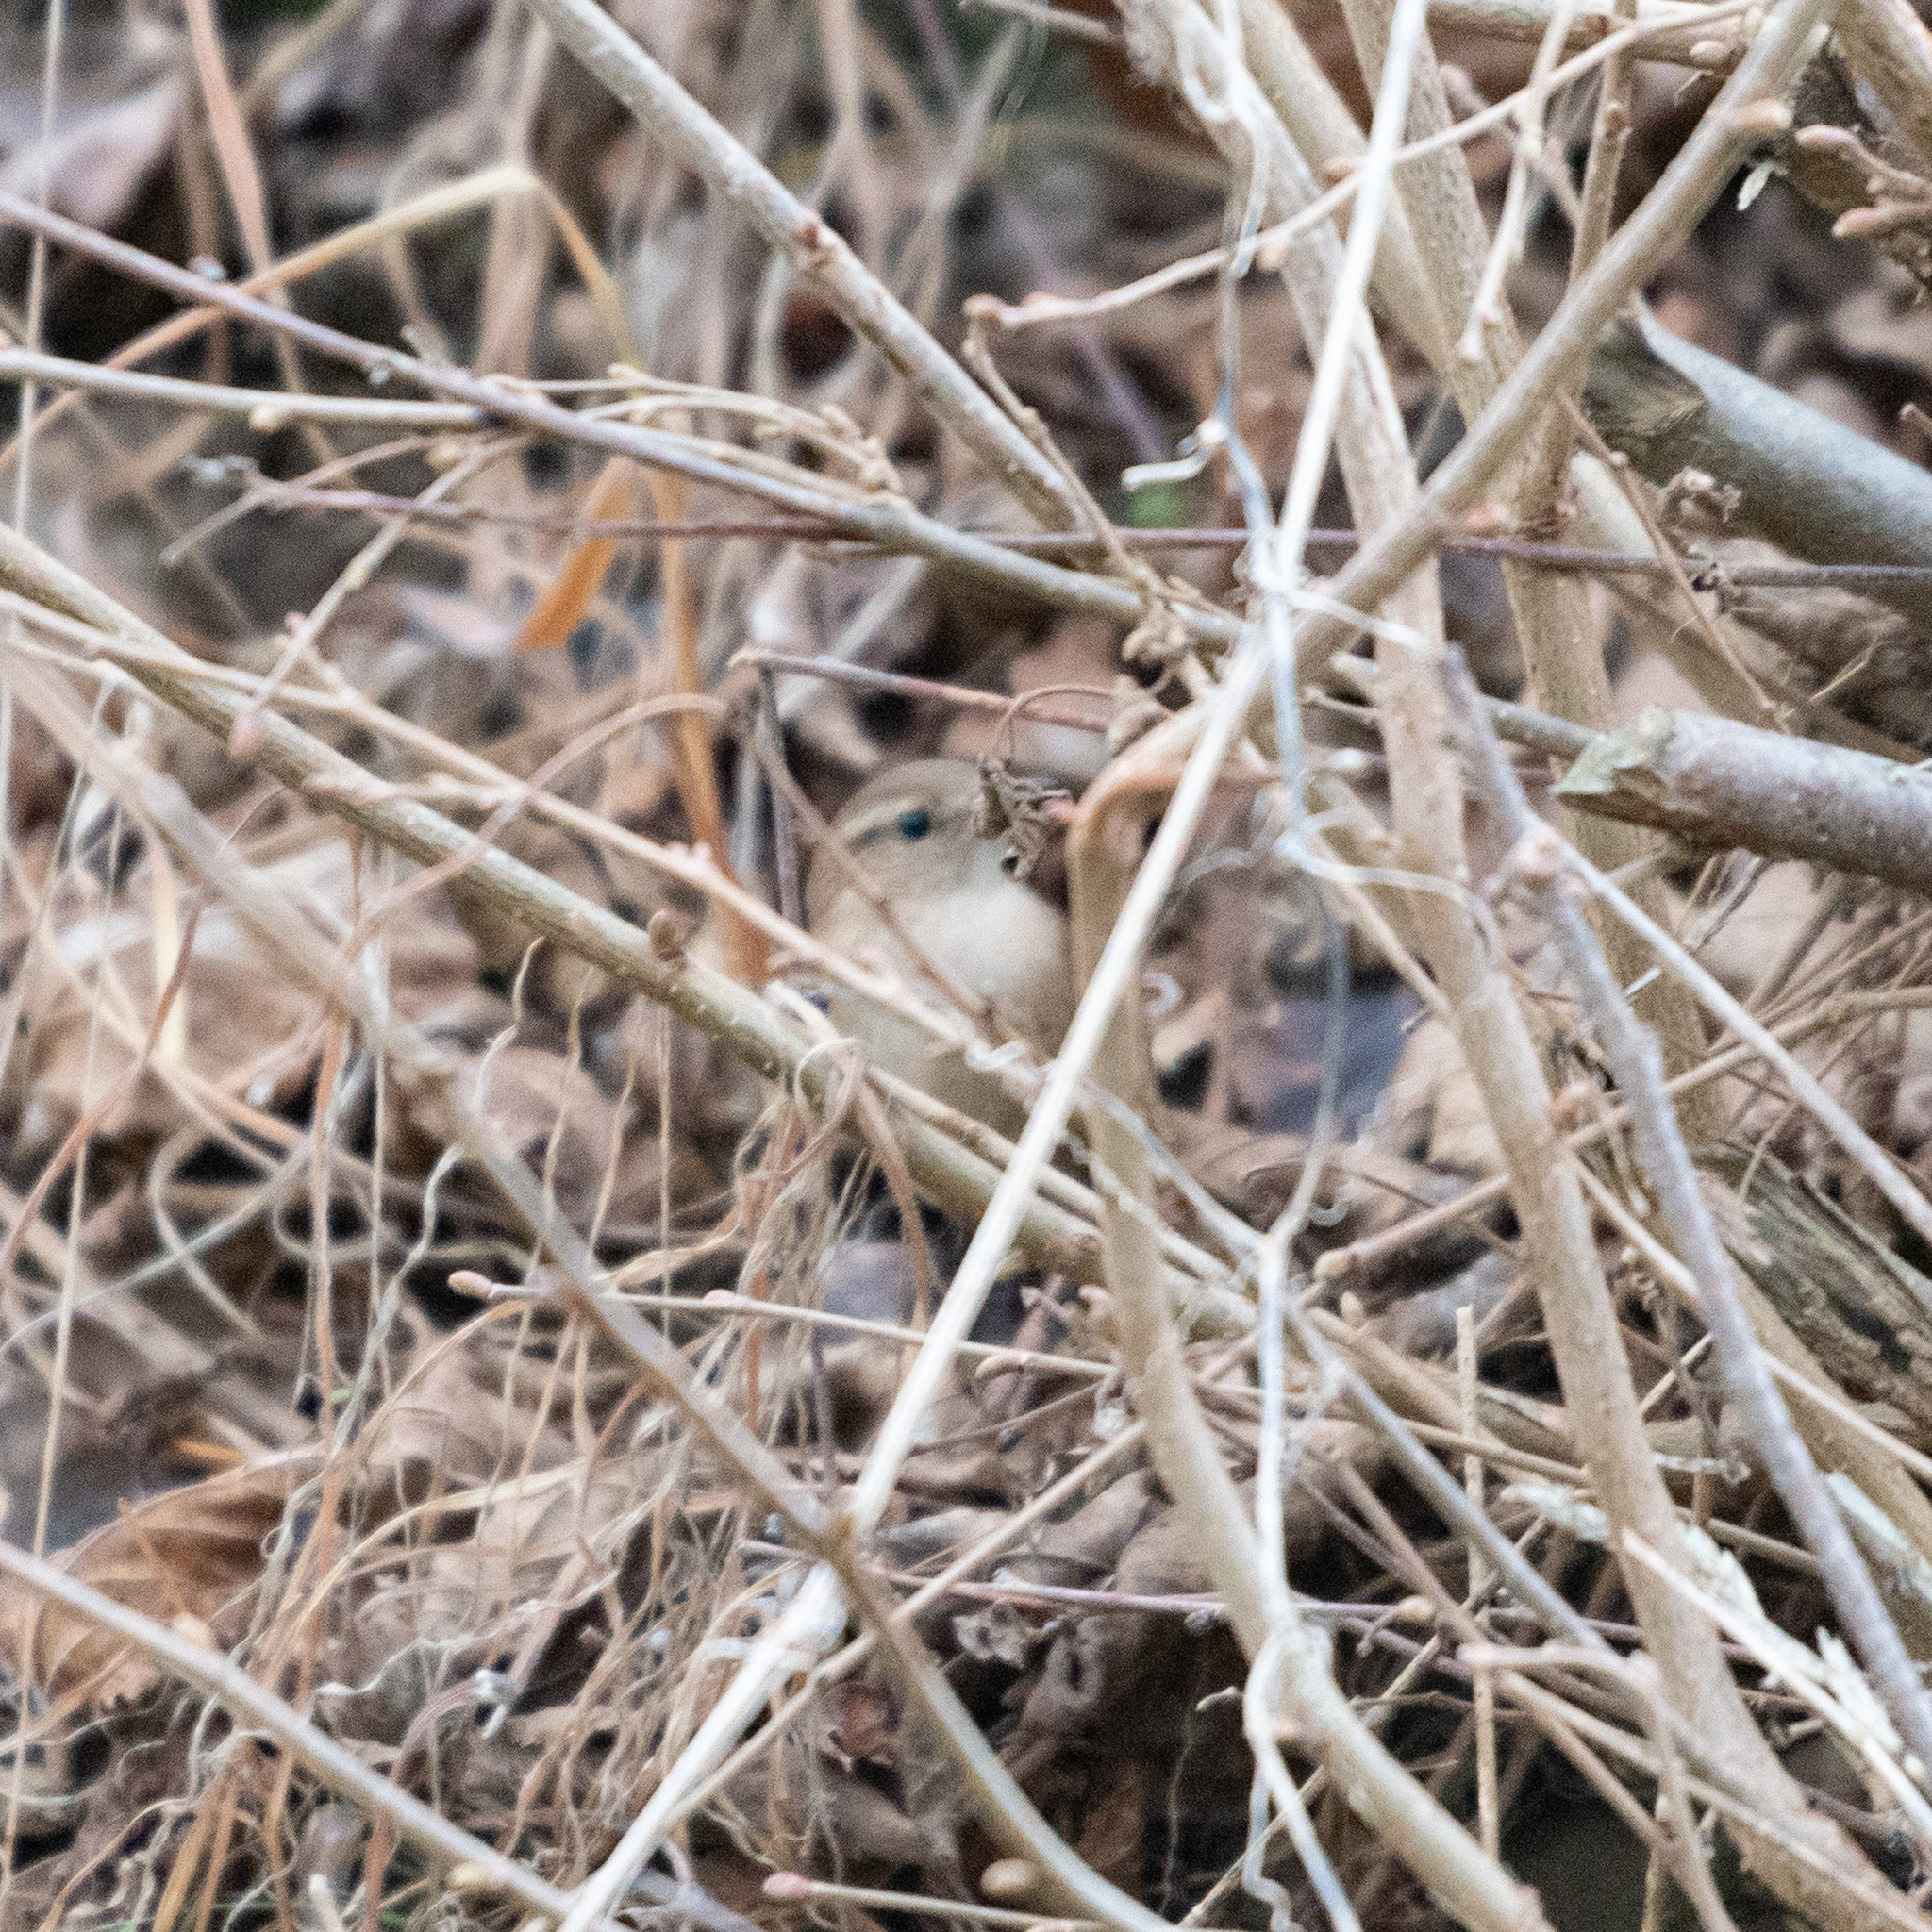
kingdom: Animalia
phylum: Chordata
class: Aves
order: Passeriformes
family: Troglodytidae
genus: Troglodytes
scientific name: Troglodytes troglodytes
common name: Eurasian wren
